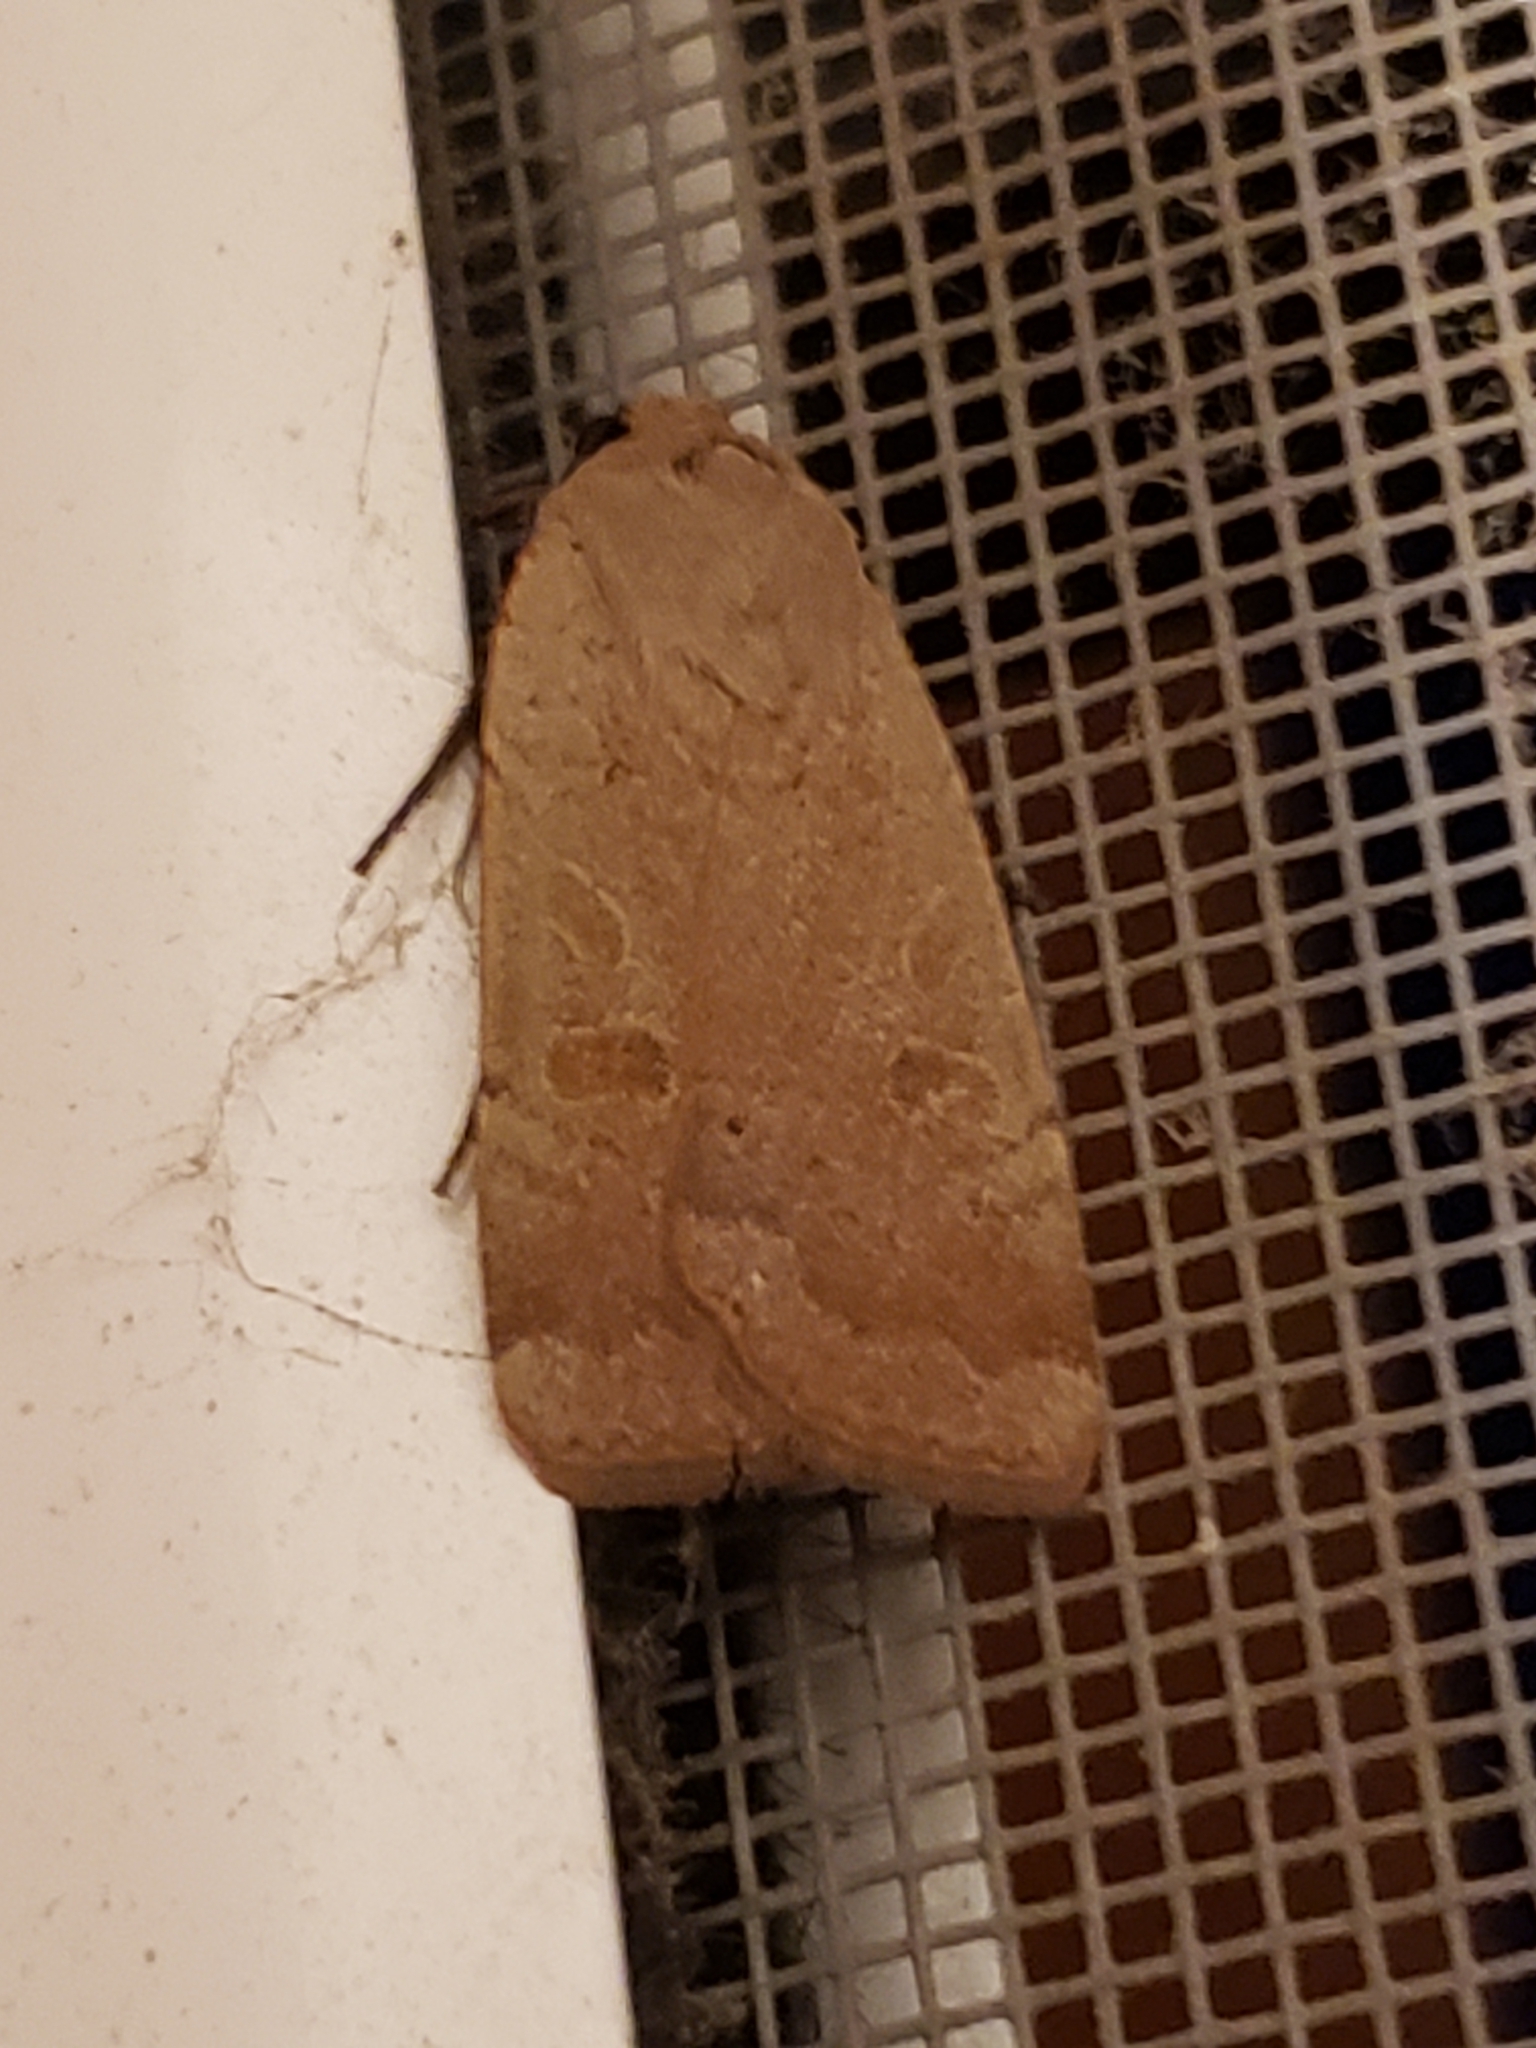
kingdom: Animalia
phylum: Arthropoda
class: Insecta
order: Lepidoptera
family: Noctuidae
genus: Noctua
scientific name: Noctua comes
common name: Lesser yellow underwing
